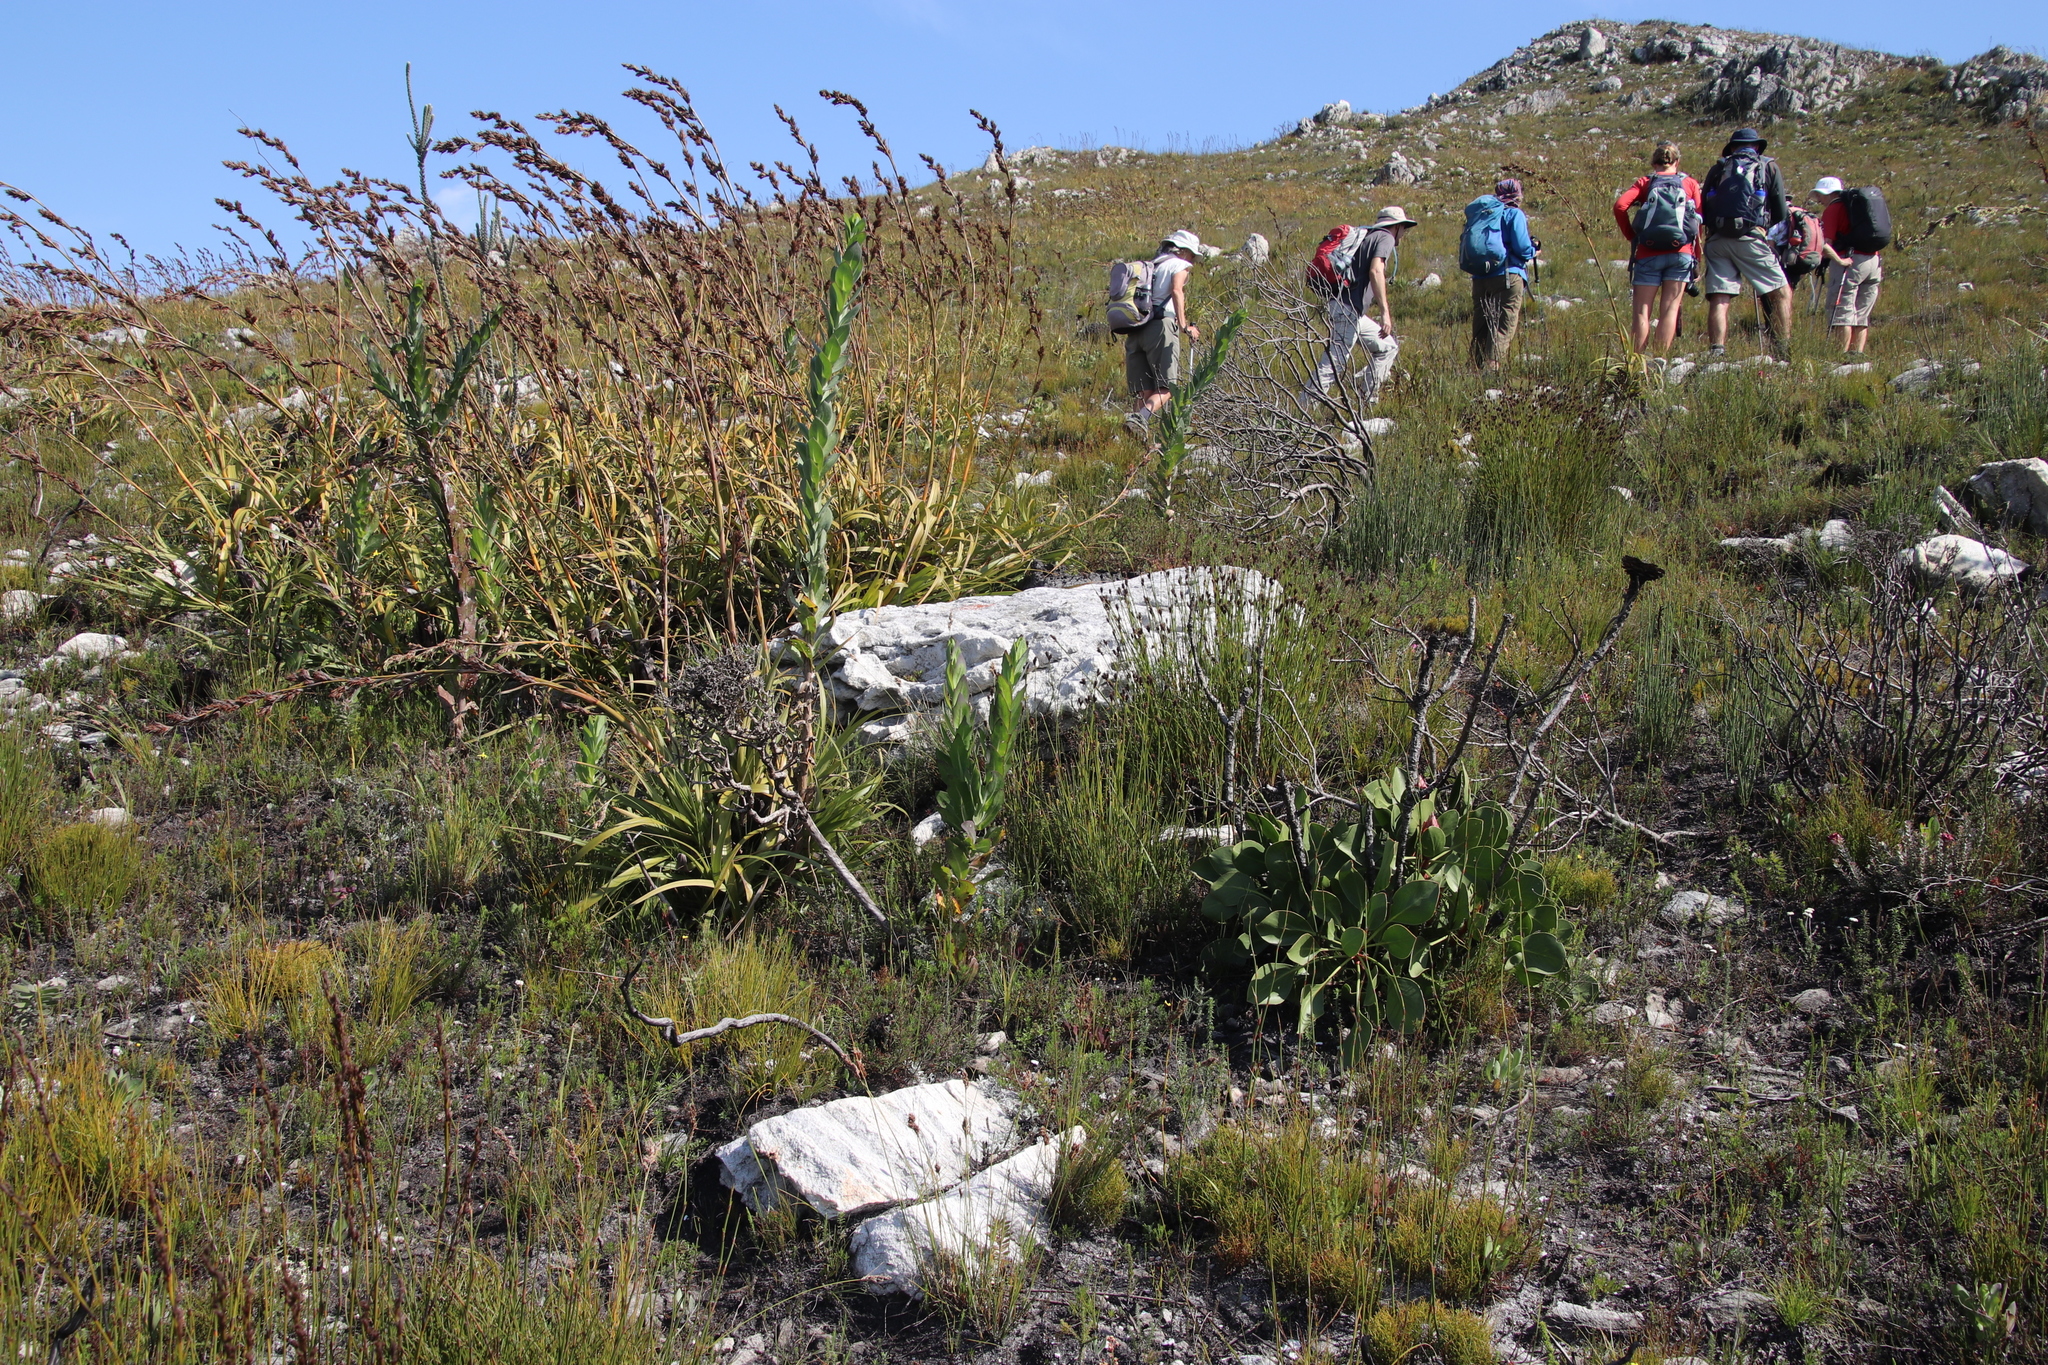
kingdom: Plantae
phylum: Tracheophyta
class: Magnoliopsida
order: Proteales
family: Proteaceae
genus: Protea
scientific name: Protea cynaroides
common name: King protea
